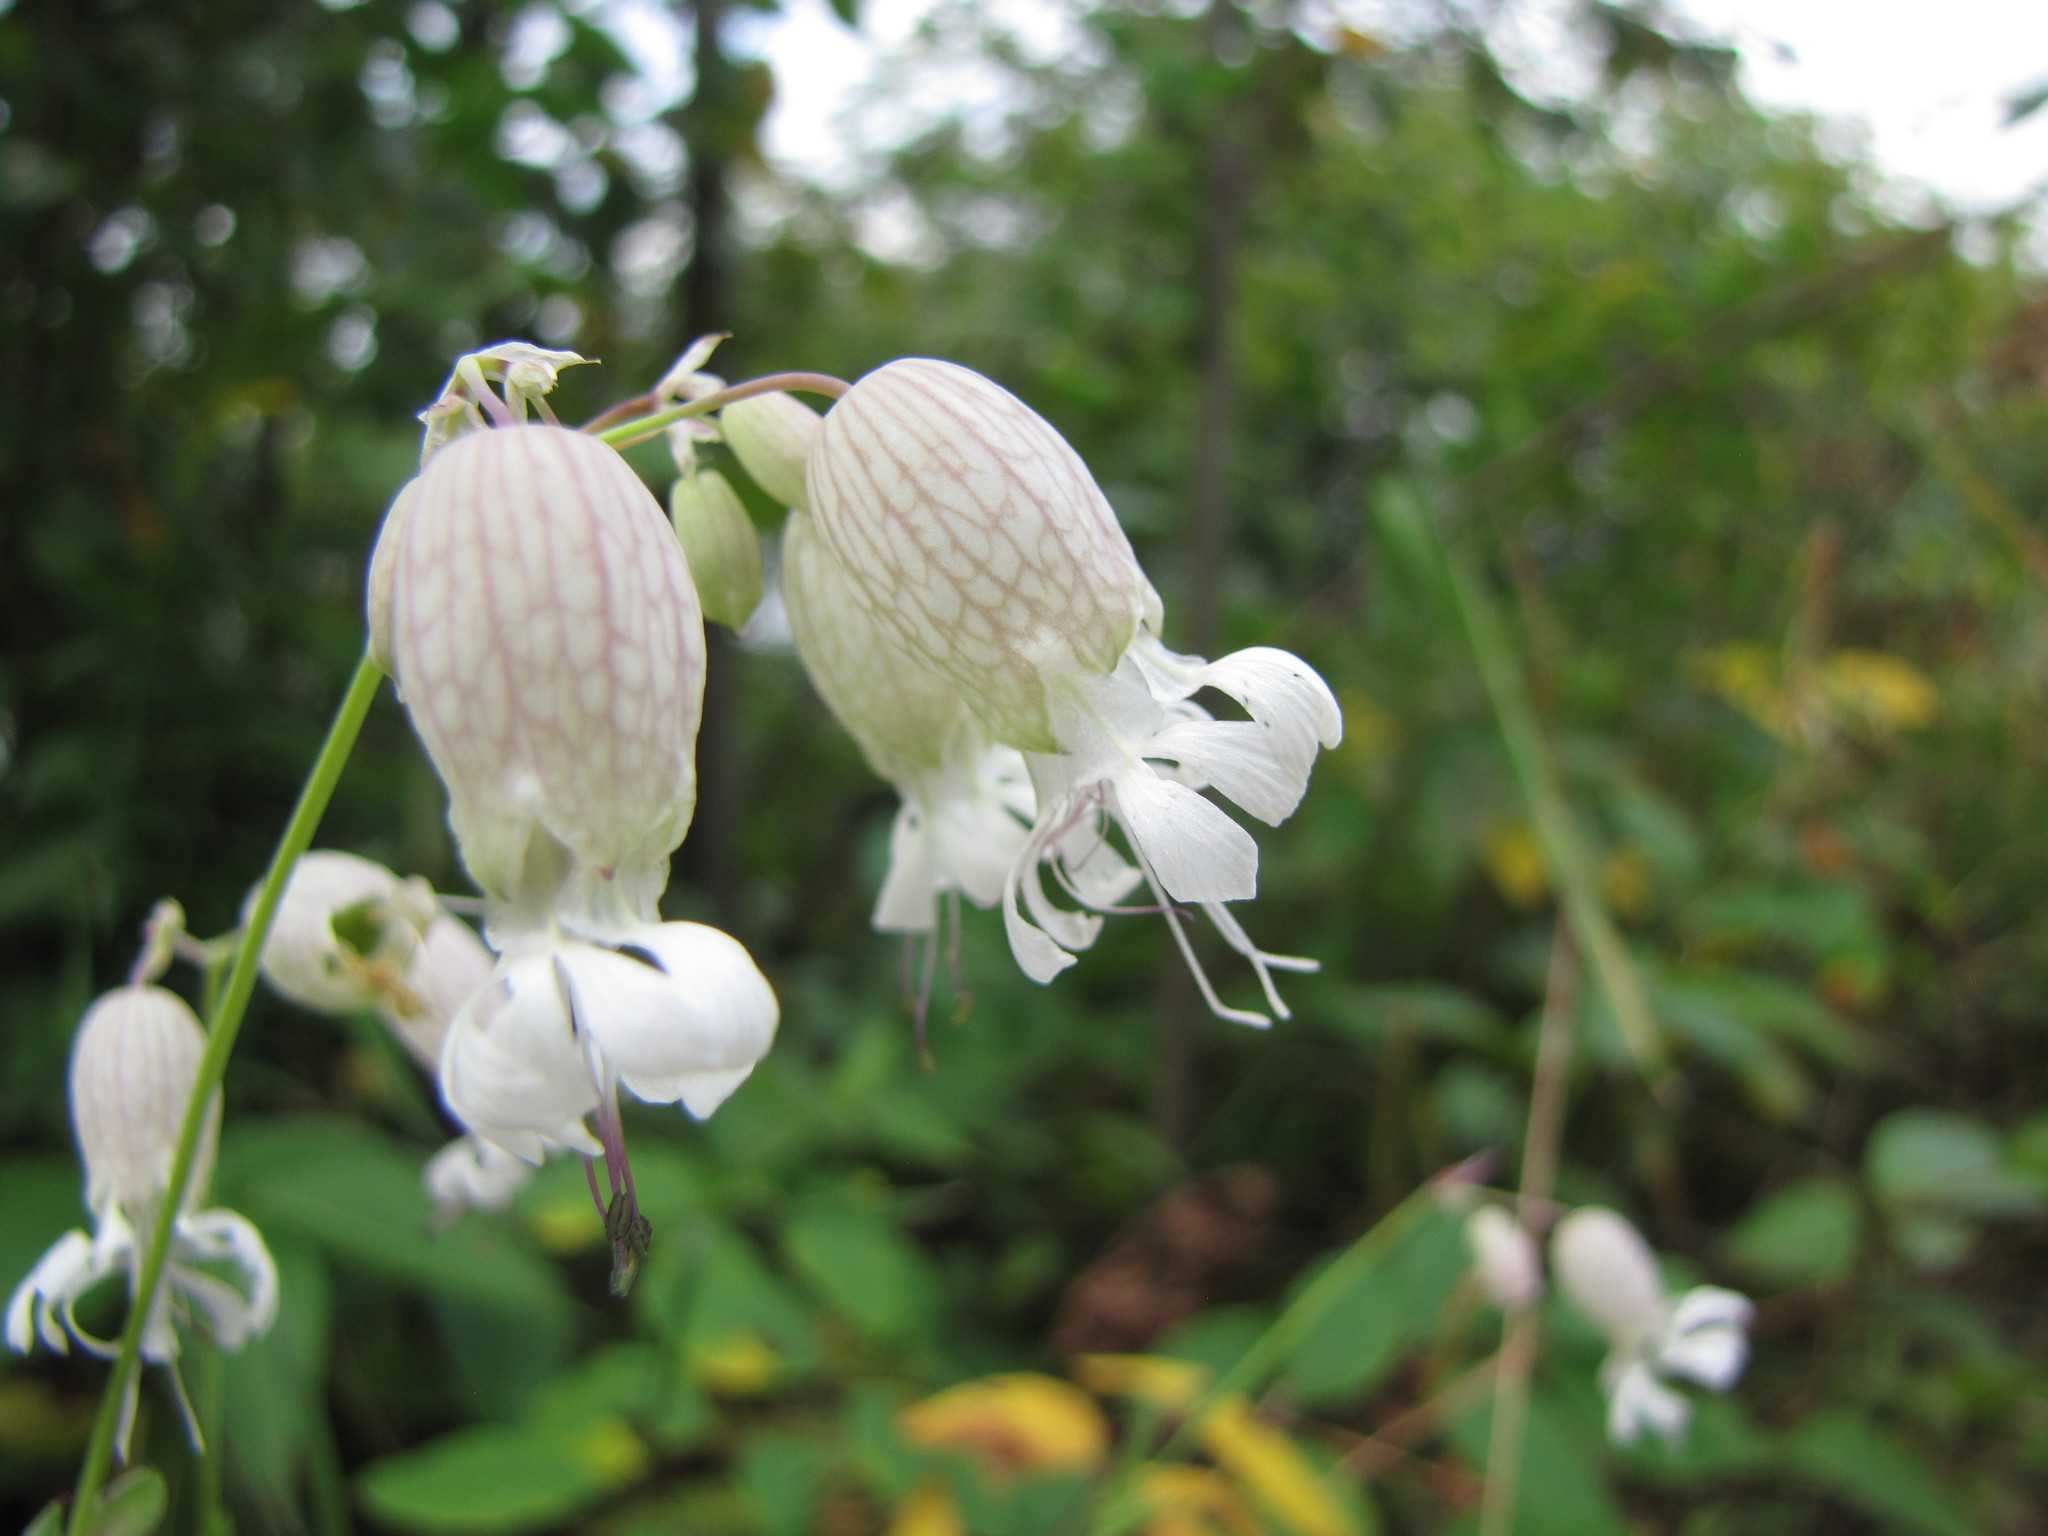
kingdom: Plantae
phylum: Tracheophyta
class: Magnoliopsida
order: Caryophyllales
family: Caryophyllaceae
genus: Silene
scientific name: Silene vulgaris
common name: Bladder campion
